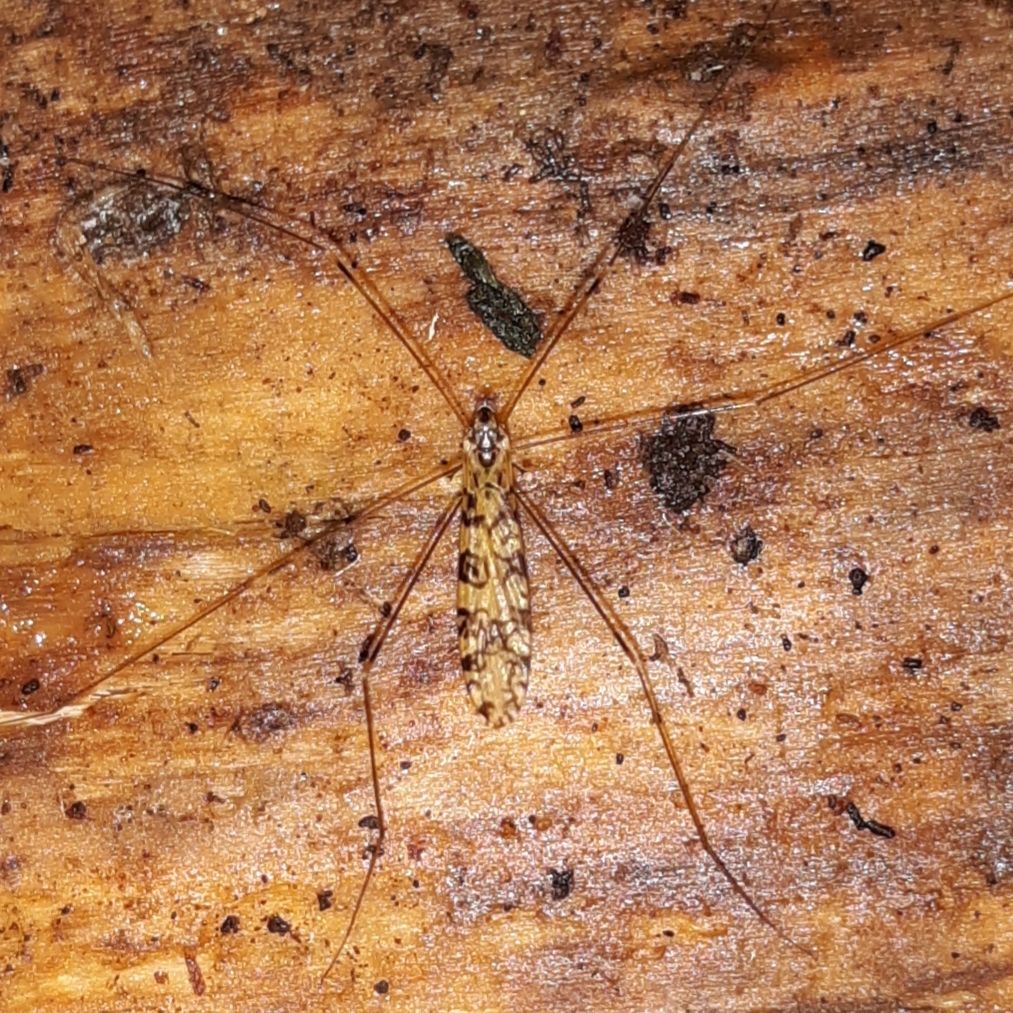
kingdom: Animalia
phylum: Arthropoda
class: Insecta
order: Diptera
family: Limoniidae
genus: Limonia
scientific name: Limonia annulata
